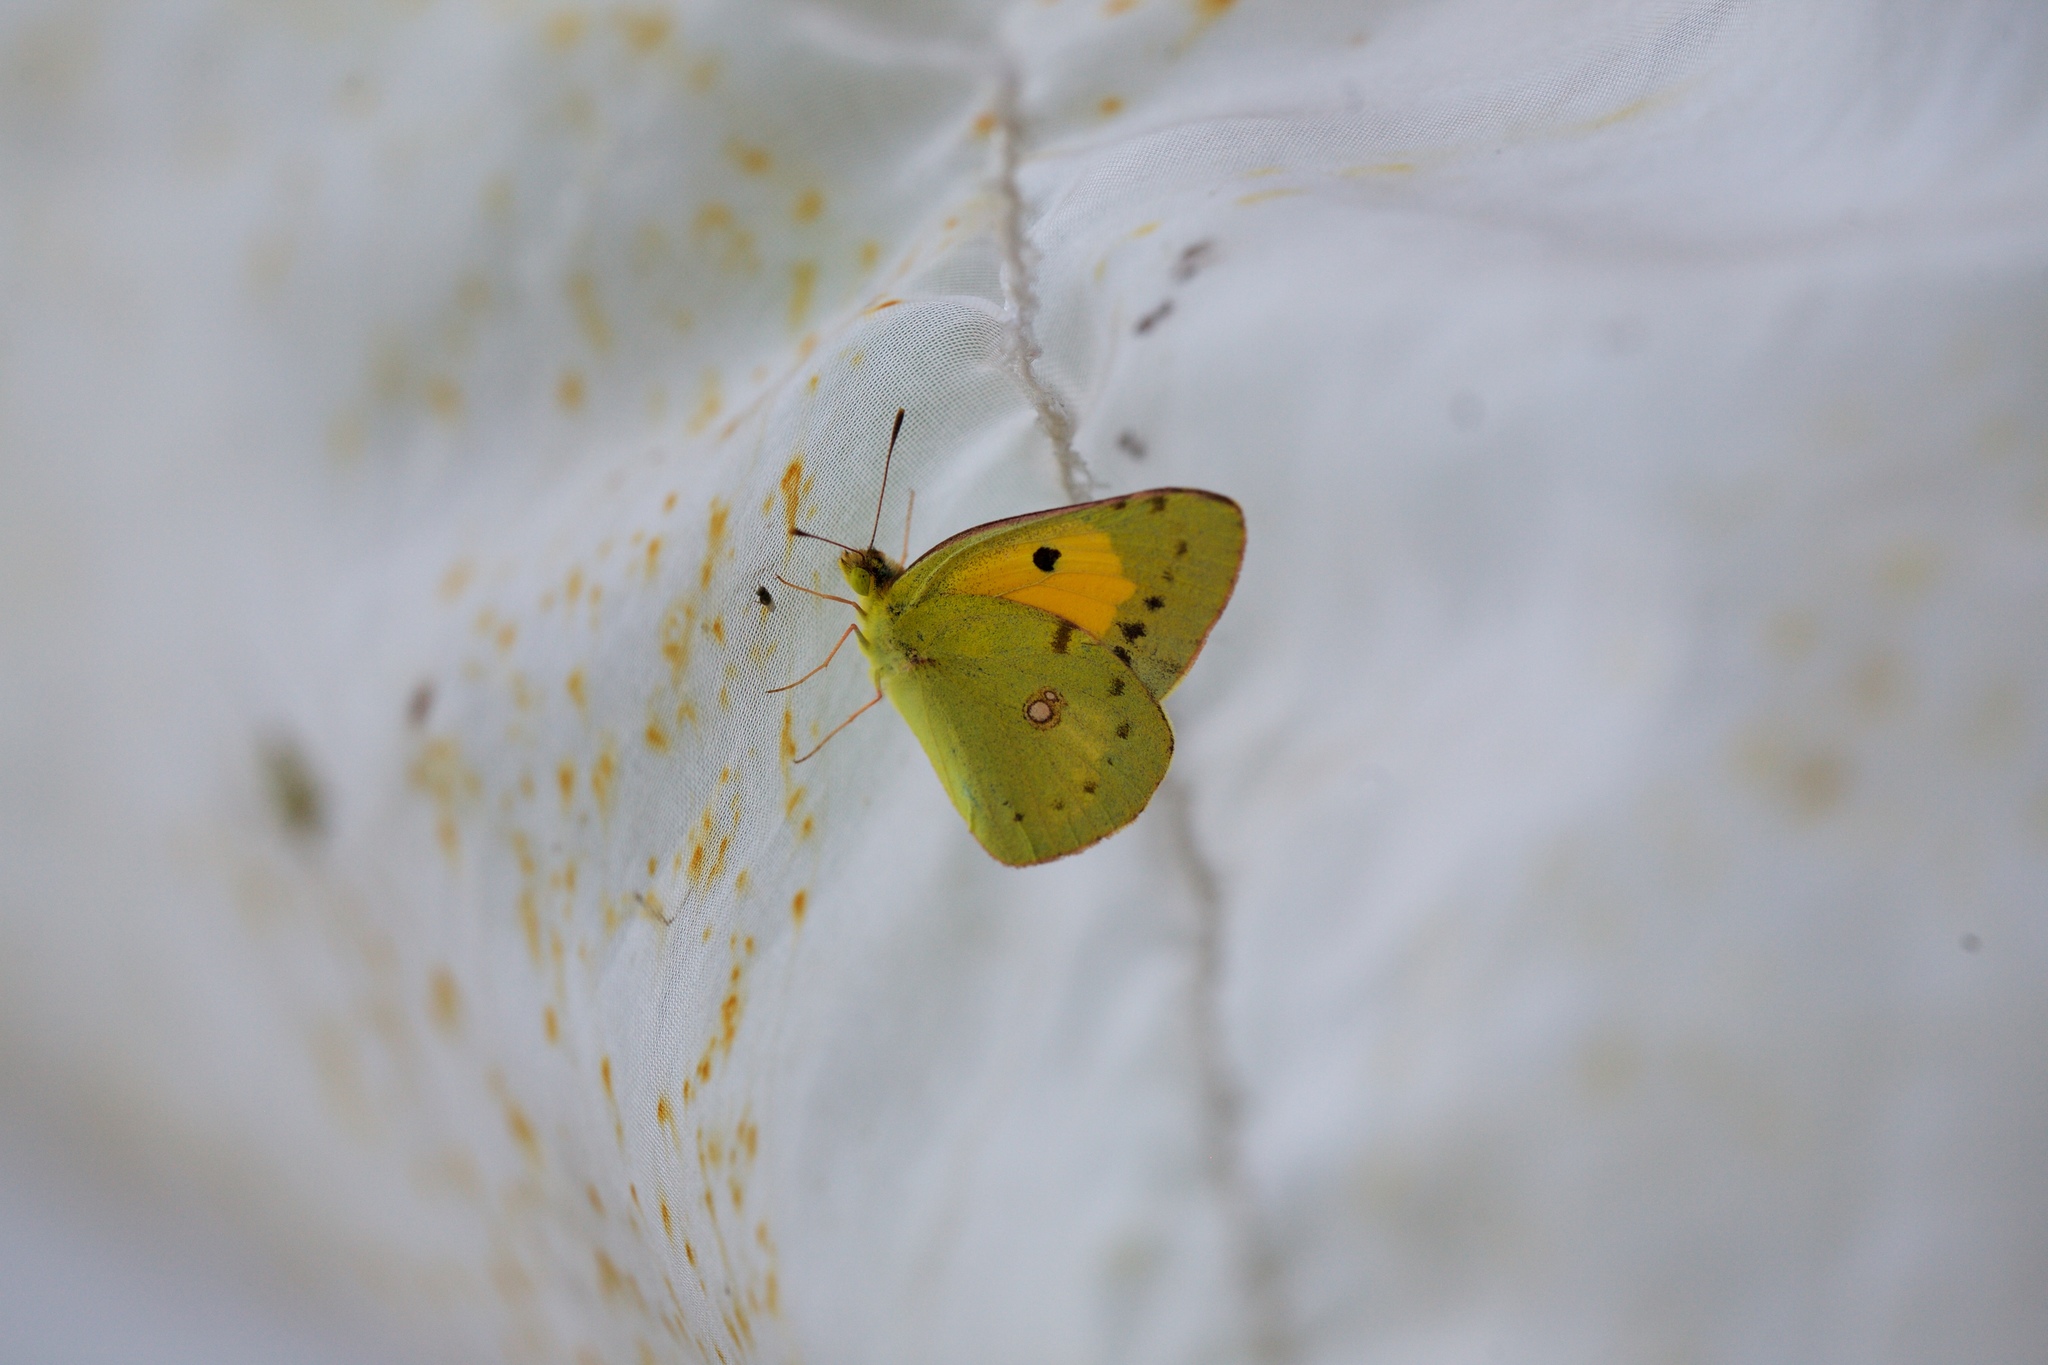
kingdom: Animalia
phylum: Arthropoda
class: Insecta
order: Lepidoptera
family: Pieridae
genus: Colias
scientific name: Colias croceus
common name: Clouded yellow
